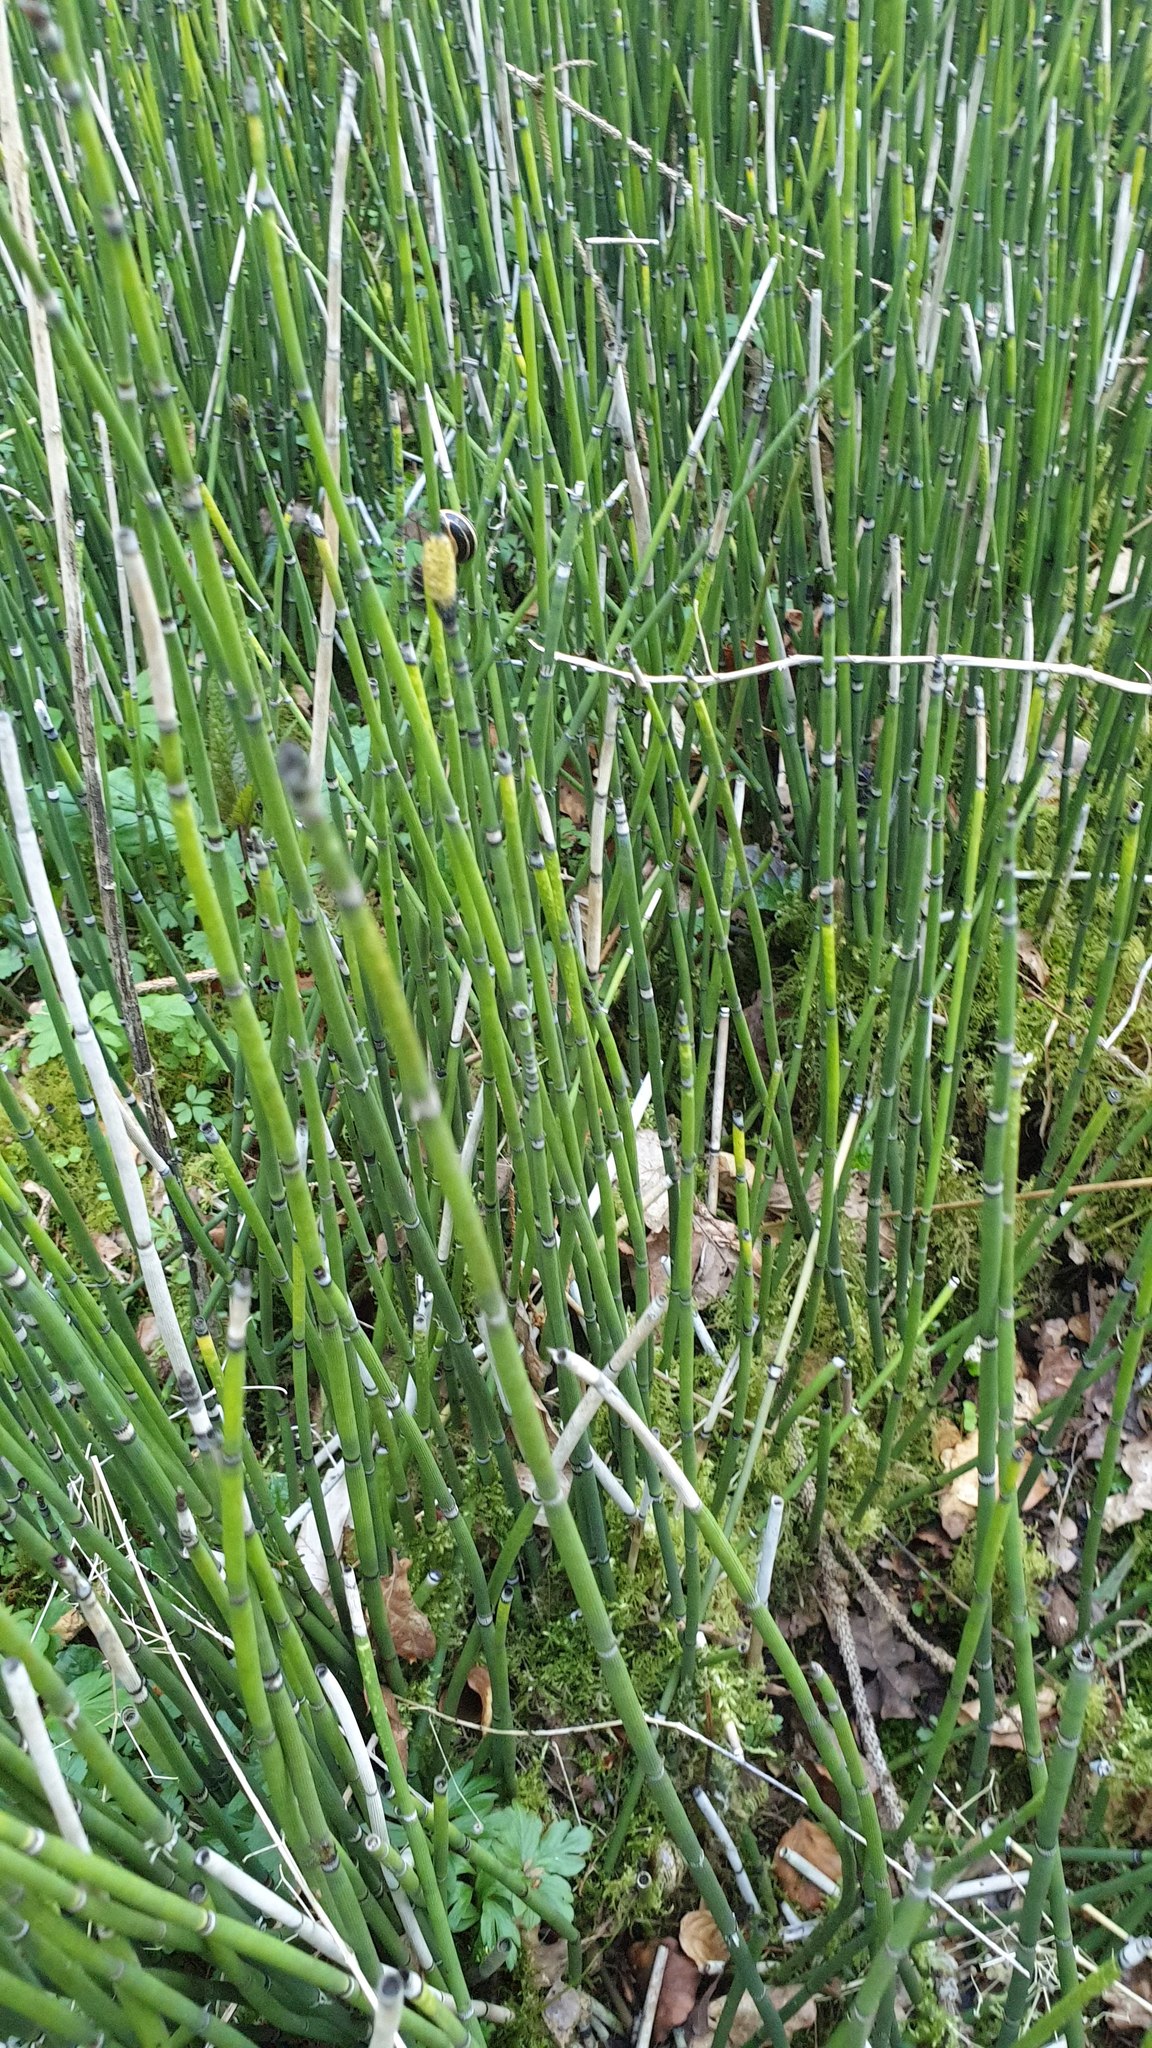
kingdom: Plantae
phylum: Tracheophyta
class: Polypodiopsida
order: Equisetales
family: Equisetaceae
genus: Equisetum
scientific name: Equisetum hyemale
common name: Rough horsetail
